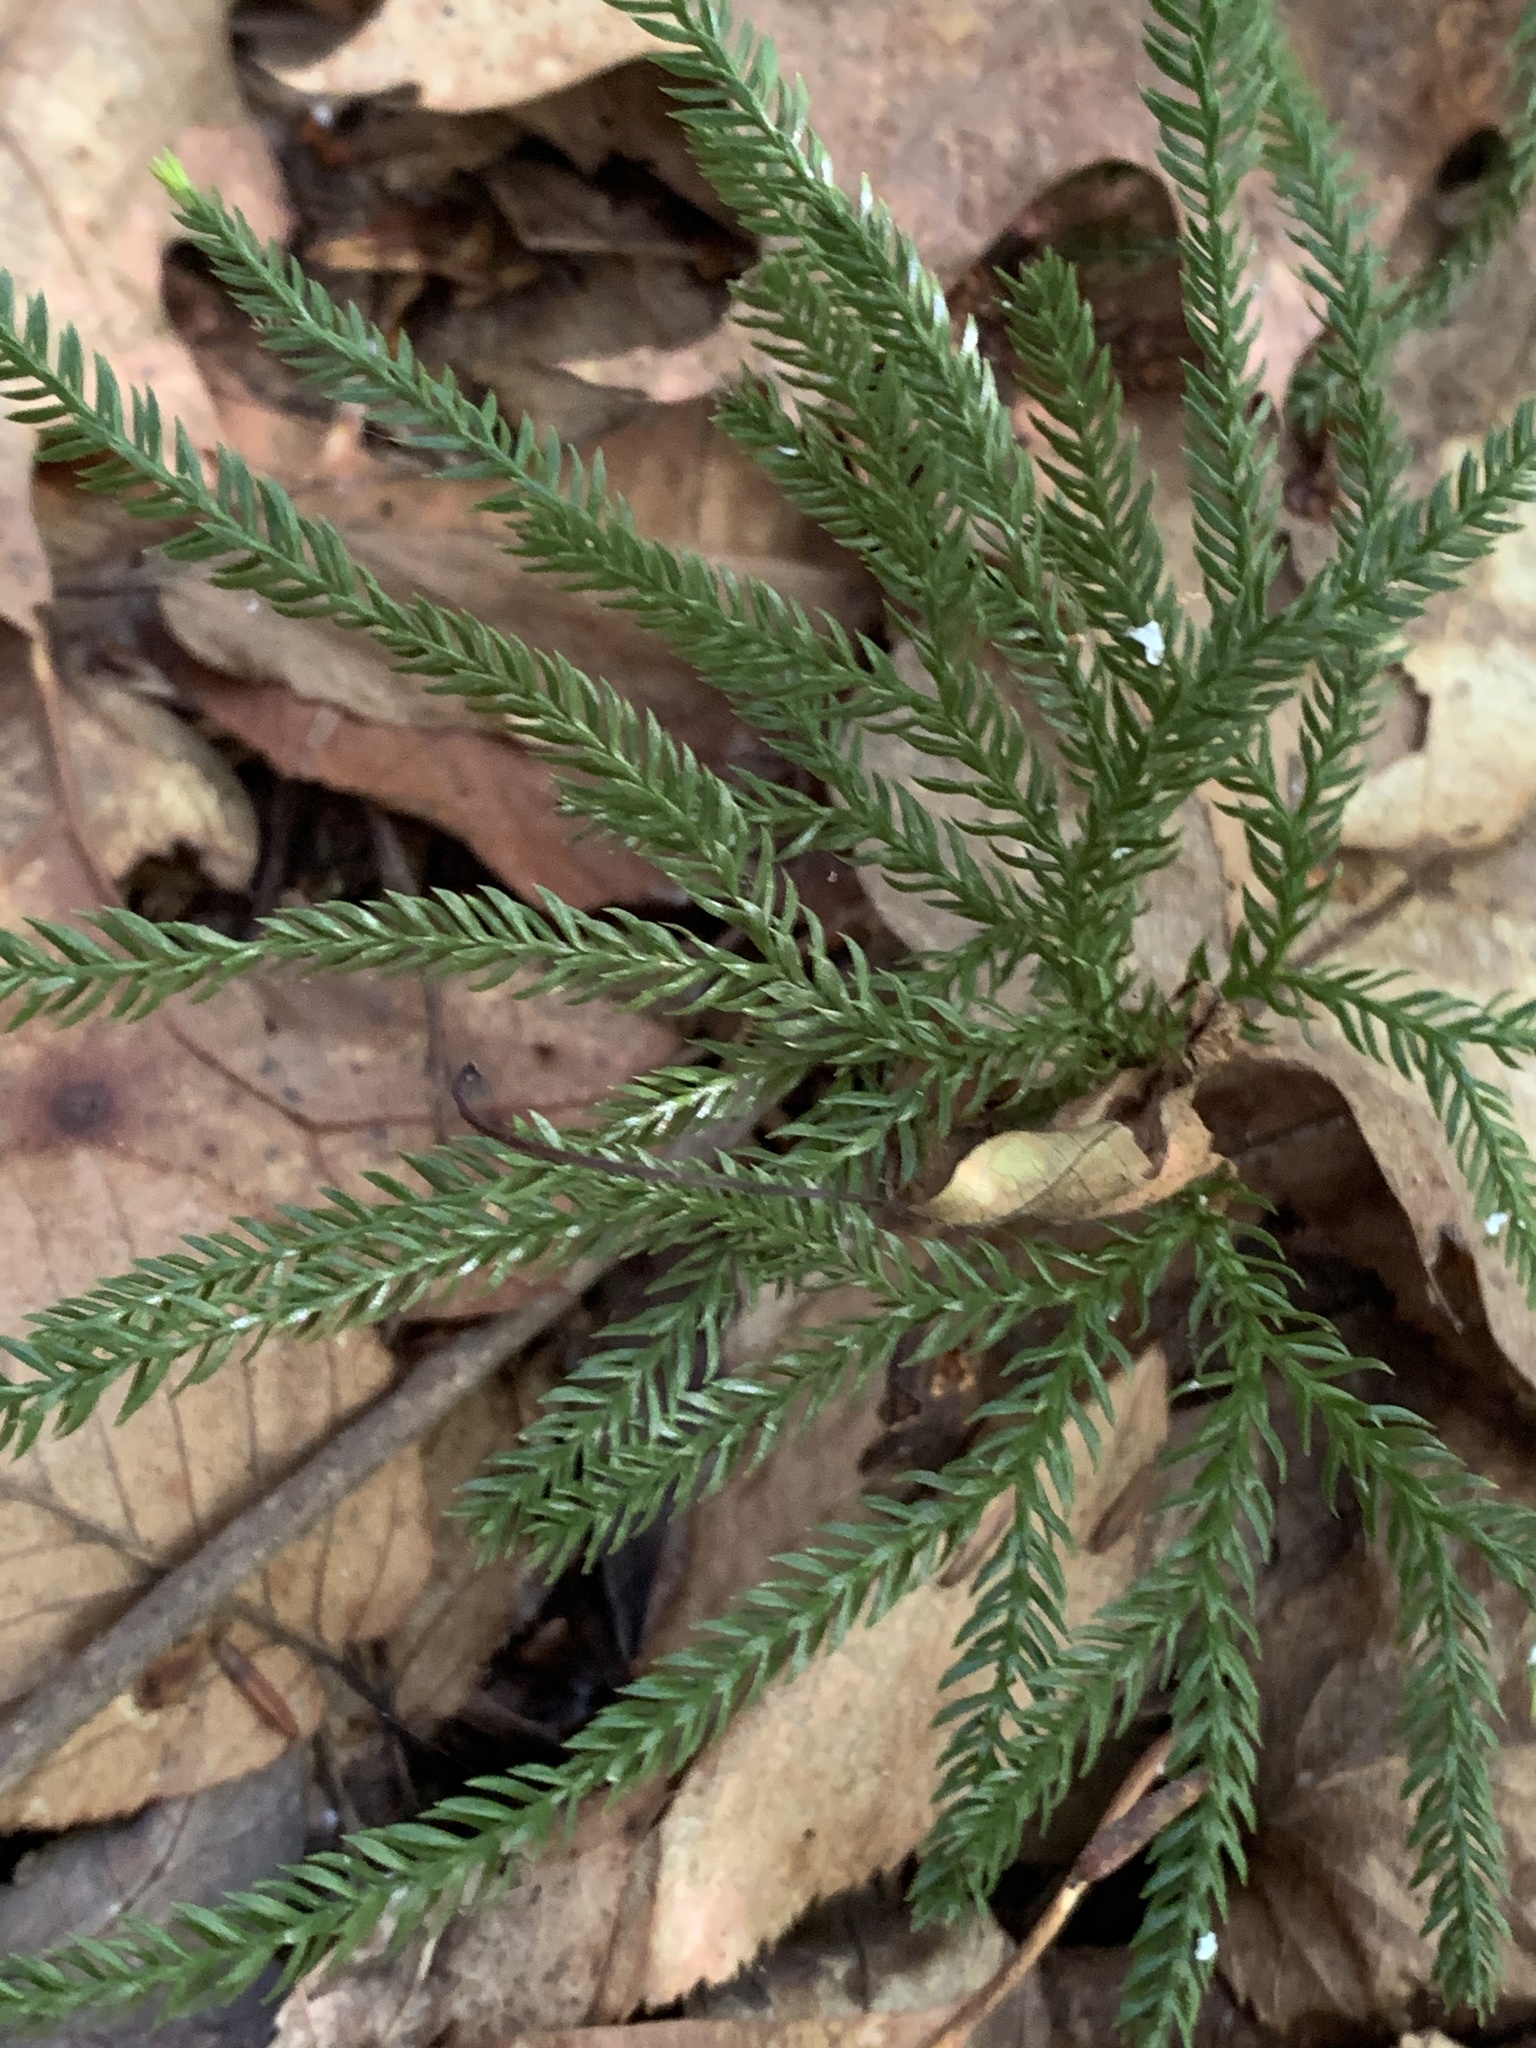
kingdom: Plantae
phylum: Tracheophyta
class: Lycopodiopsida
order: Lycopodiales
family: Lycopodiaceae
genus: Dendrolycopodium
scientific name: Dendrolycopodium obscurum
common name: Common ground-pine
